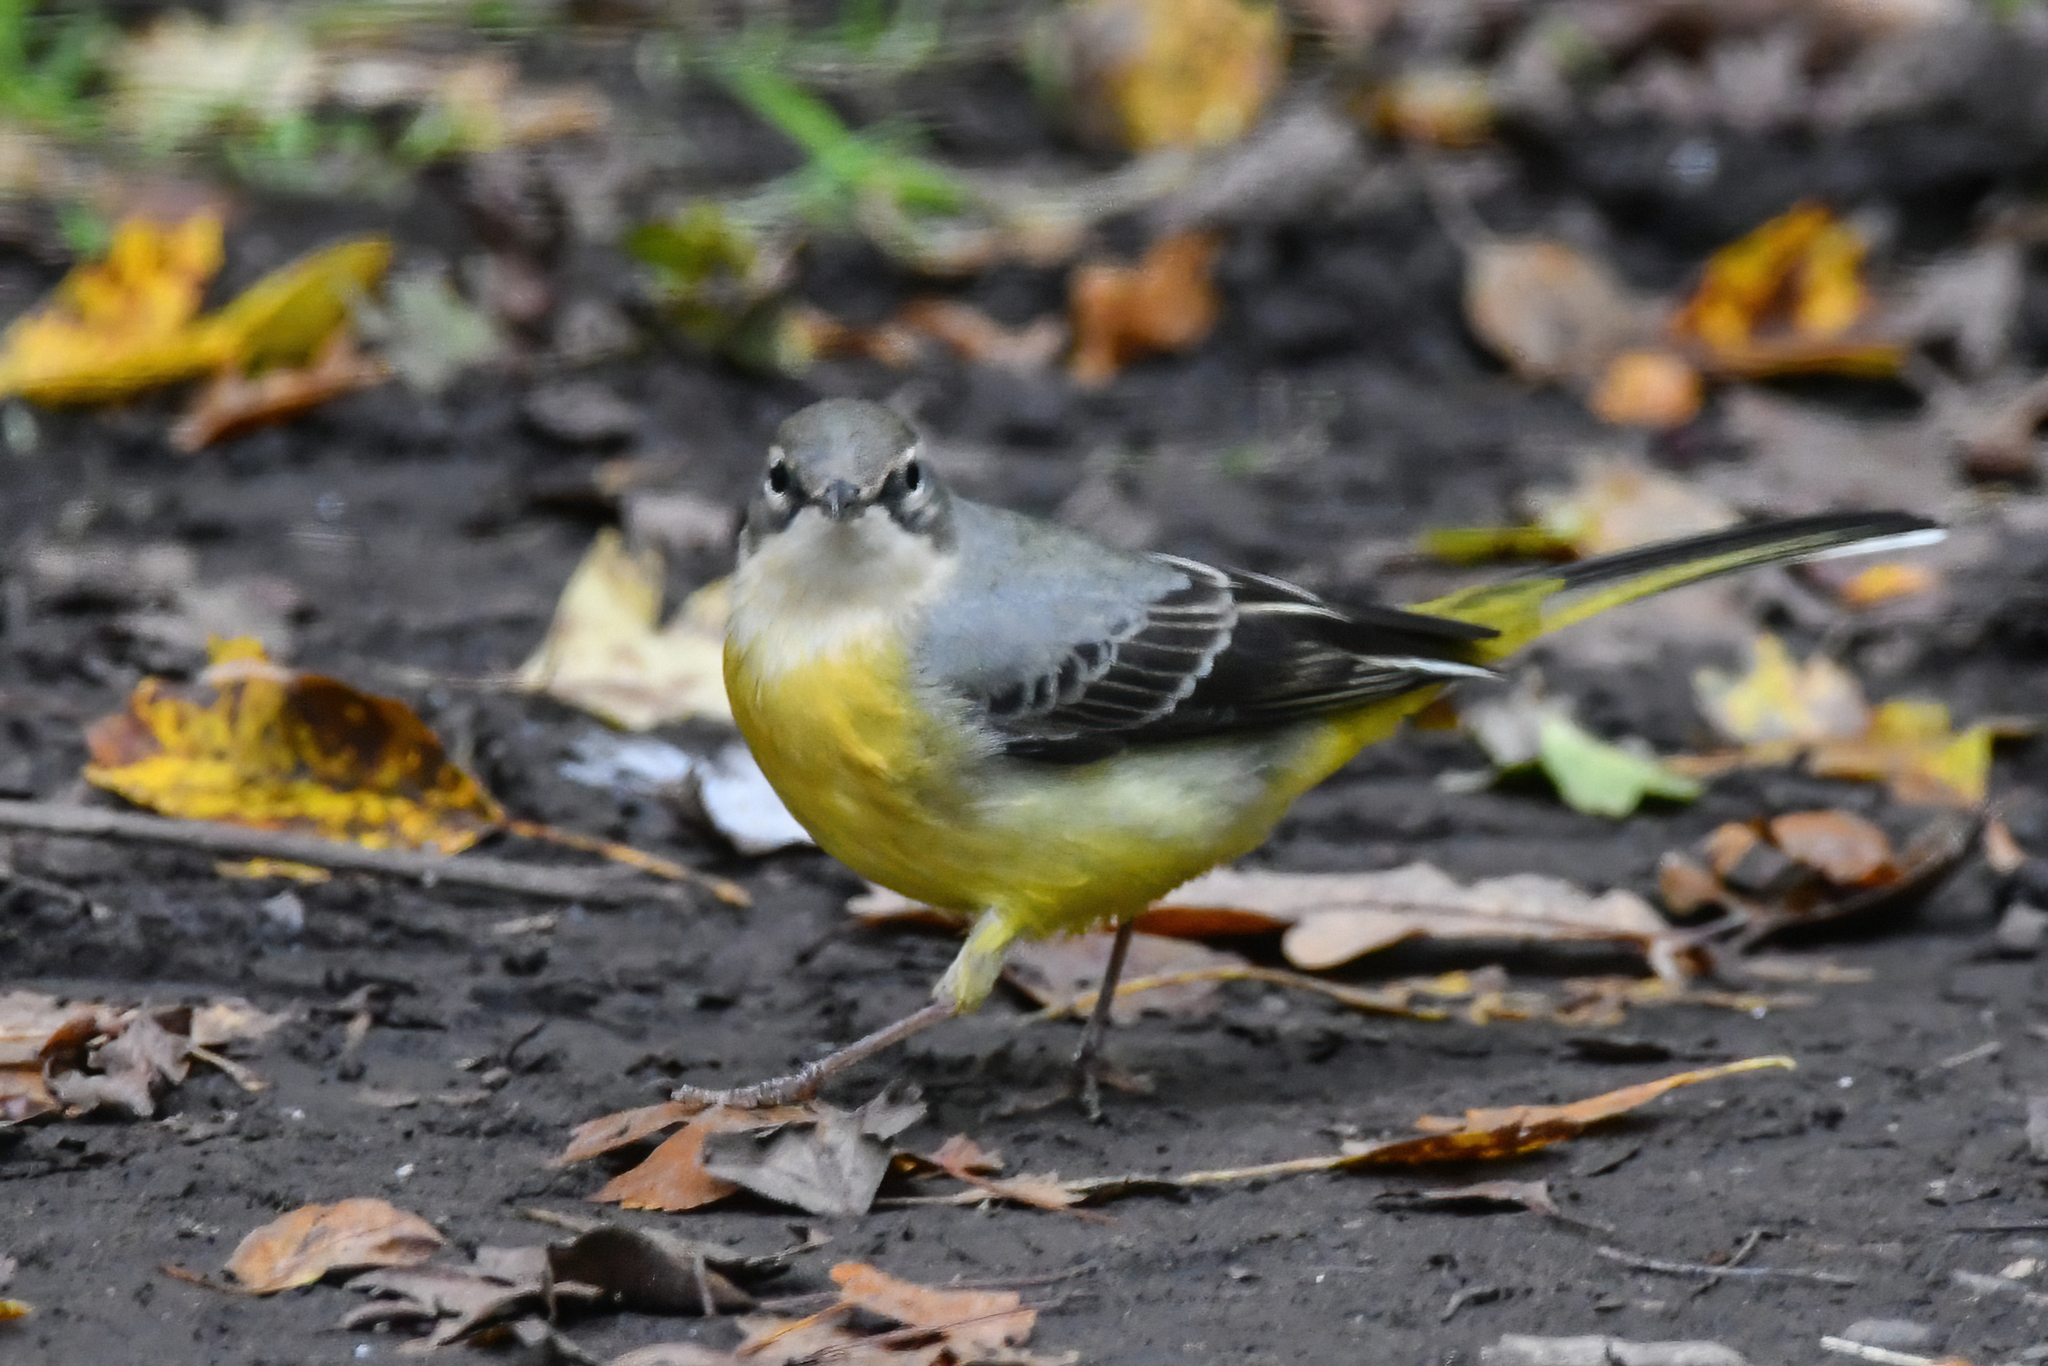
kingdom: Animalia
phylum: Chordata
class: Aves
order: Passeriformes
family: Motacillidae
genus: Motacilla
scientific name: Motacilla cinerea
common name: Grey wagtail
